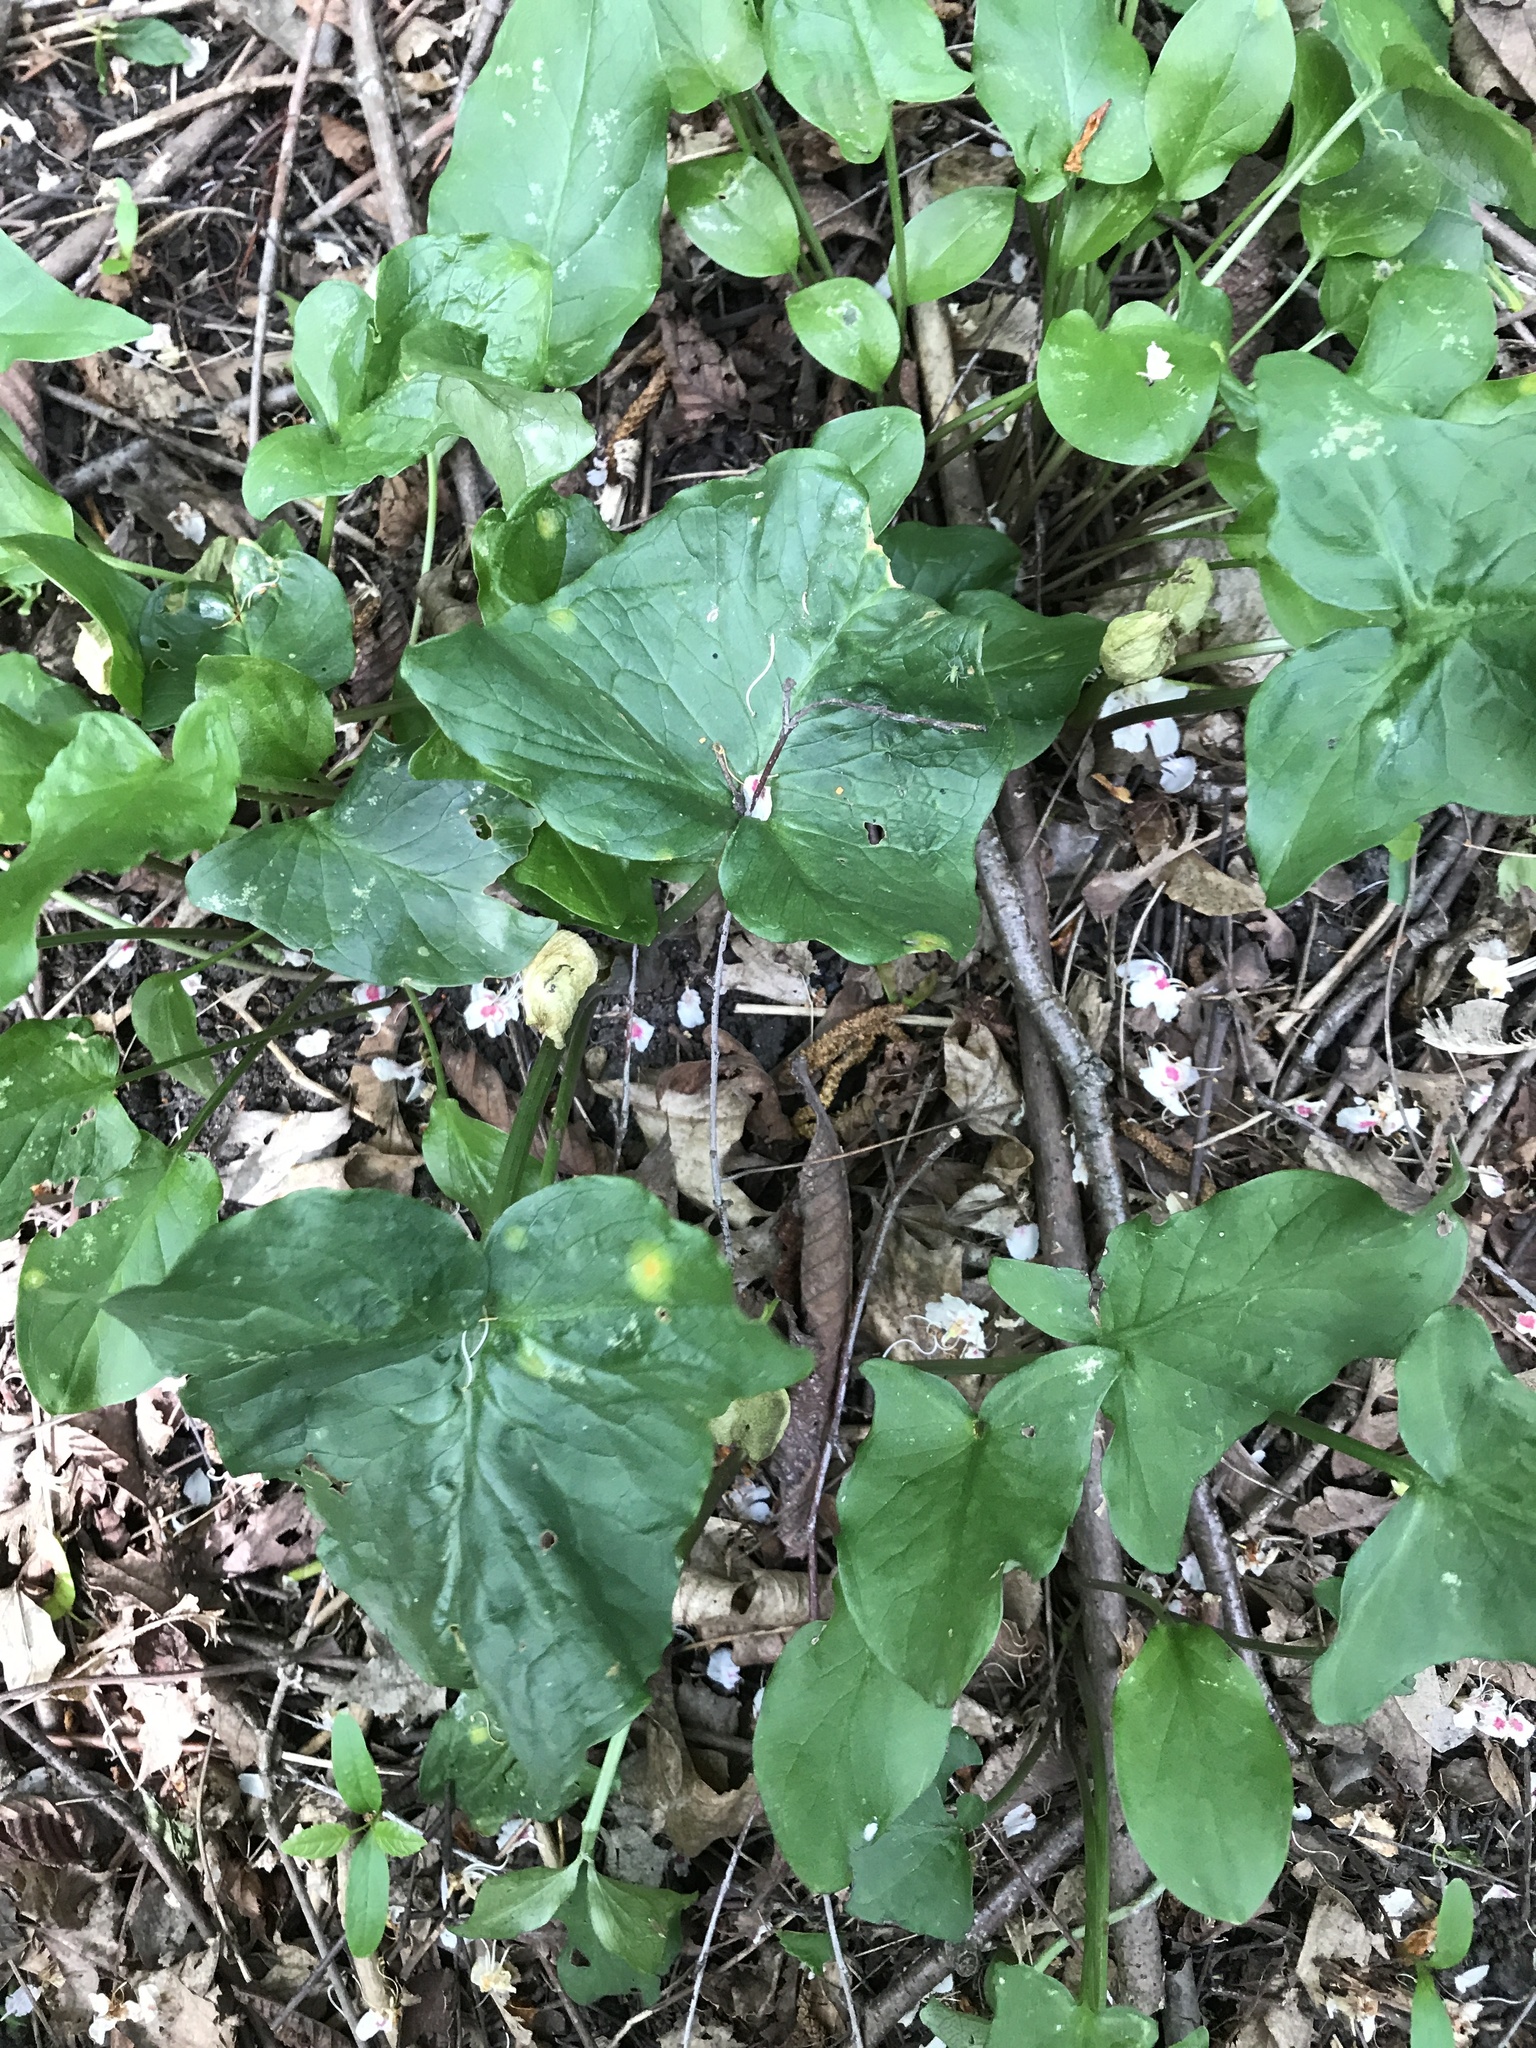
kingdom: Plantae
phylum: Tracheophyta
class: Liliopsida
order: Alismatales
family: Araceae
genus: Arum
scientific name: Arum maculatum
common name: Lords-and-ladies
